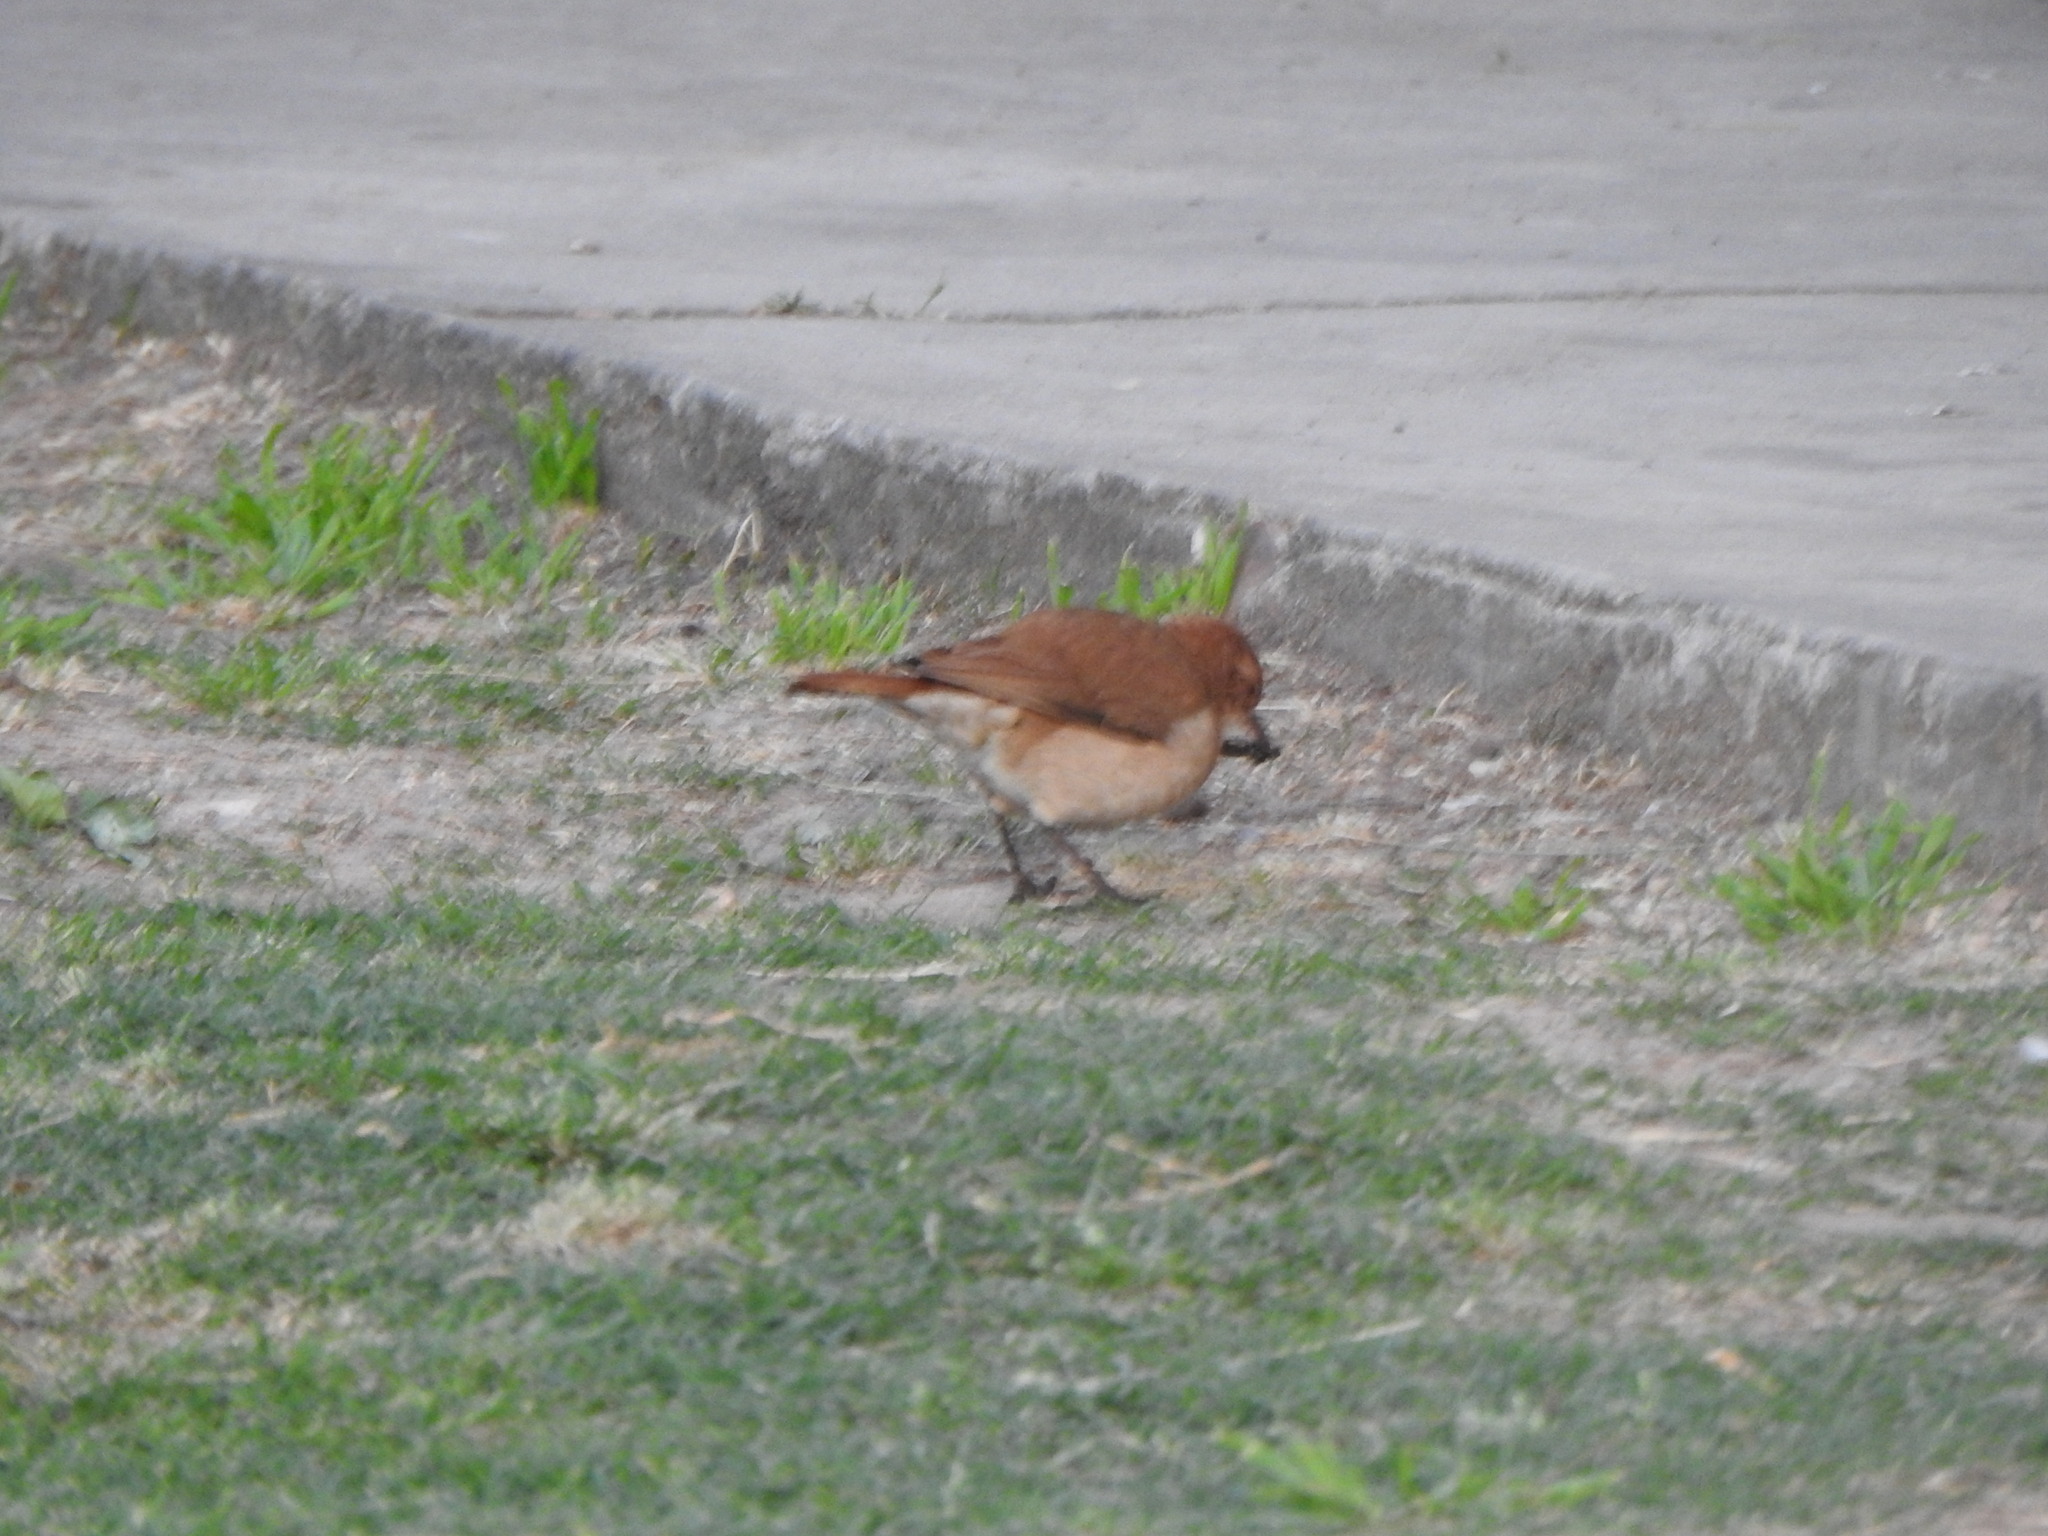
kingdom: Animalia
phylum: Chordata
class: Aves
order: Passeriformes
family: Furnariidae
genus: Furnarius
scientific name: Furnarius rufus
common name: Rufous hornero
